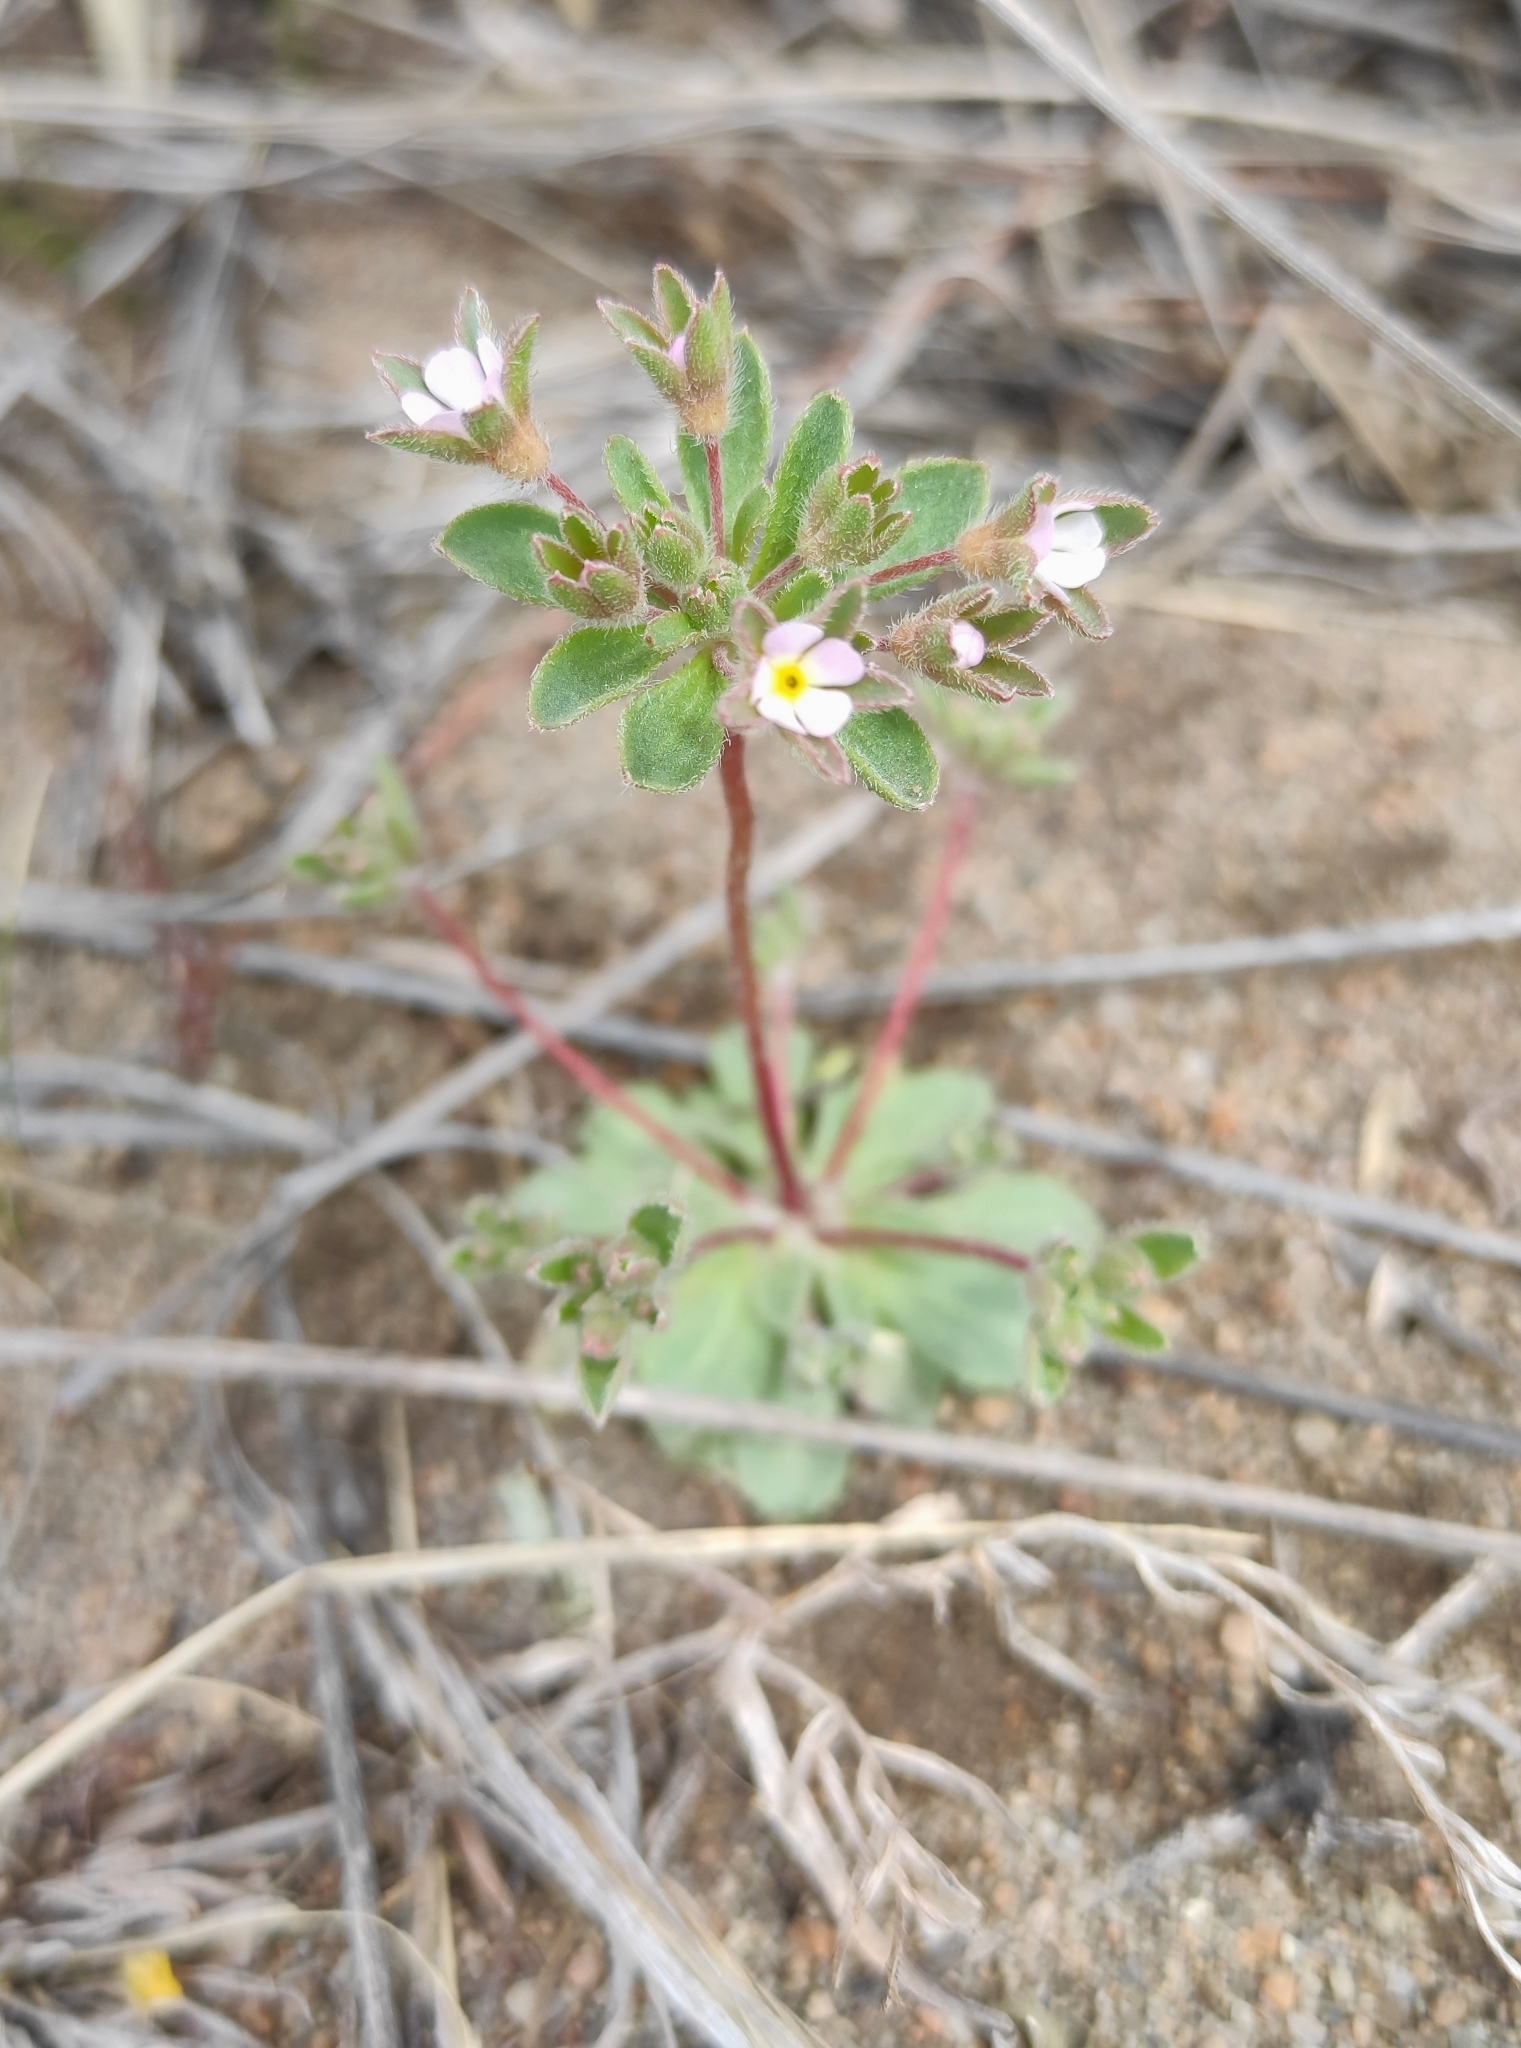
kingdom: Plantae
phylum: Tracheophyta
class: Magnoliopsida
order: Ericales
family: Primulaceae
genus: Androsace
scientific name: Androsace maxima
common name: Annual androsace
